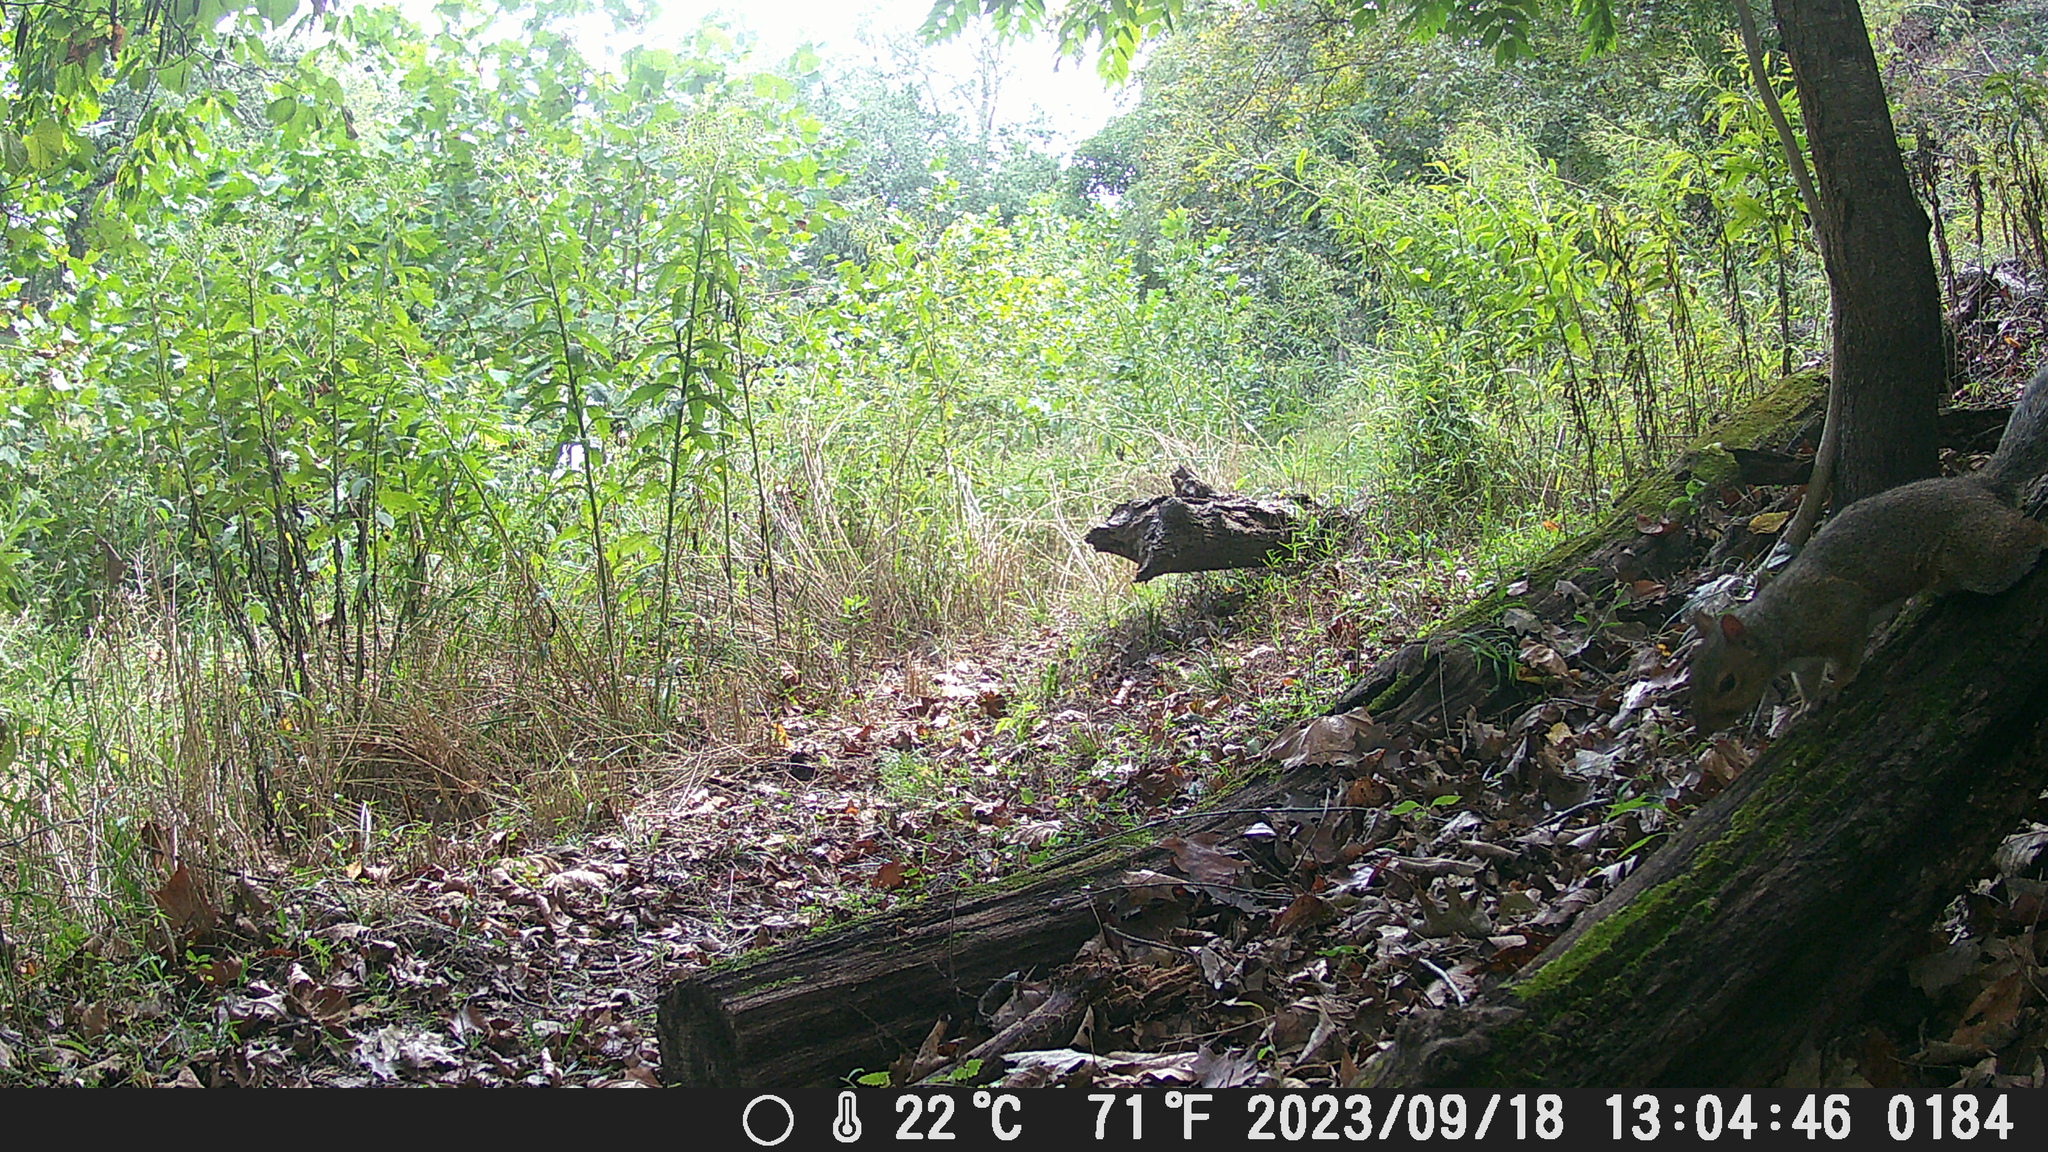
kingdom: Animalia
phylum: Chordata
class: Mammalia
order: Rodentia
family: Sciuridae
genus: Sciurus
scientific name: Sciurus carolinensis
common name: Eastern gray squirrel
